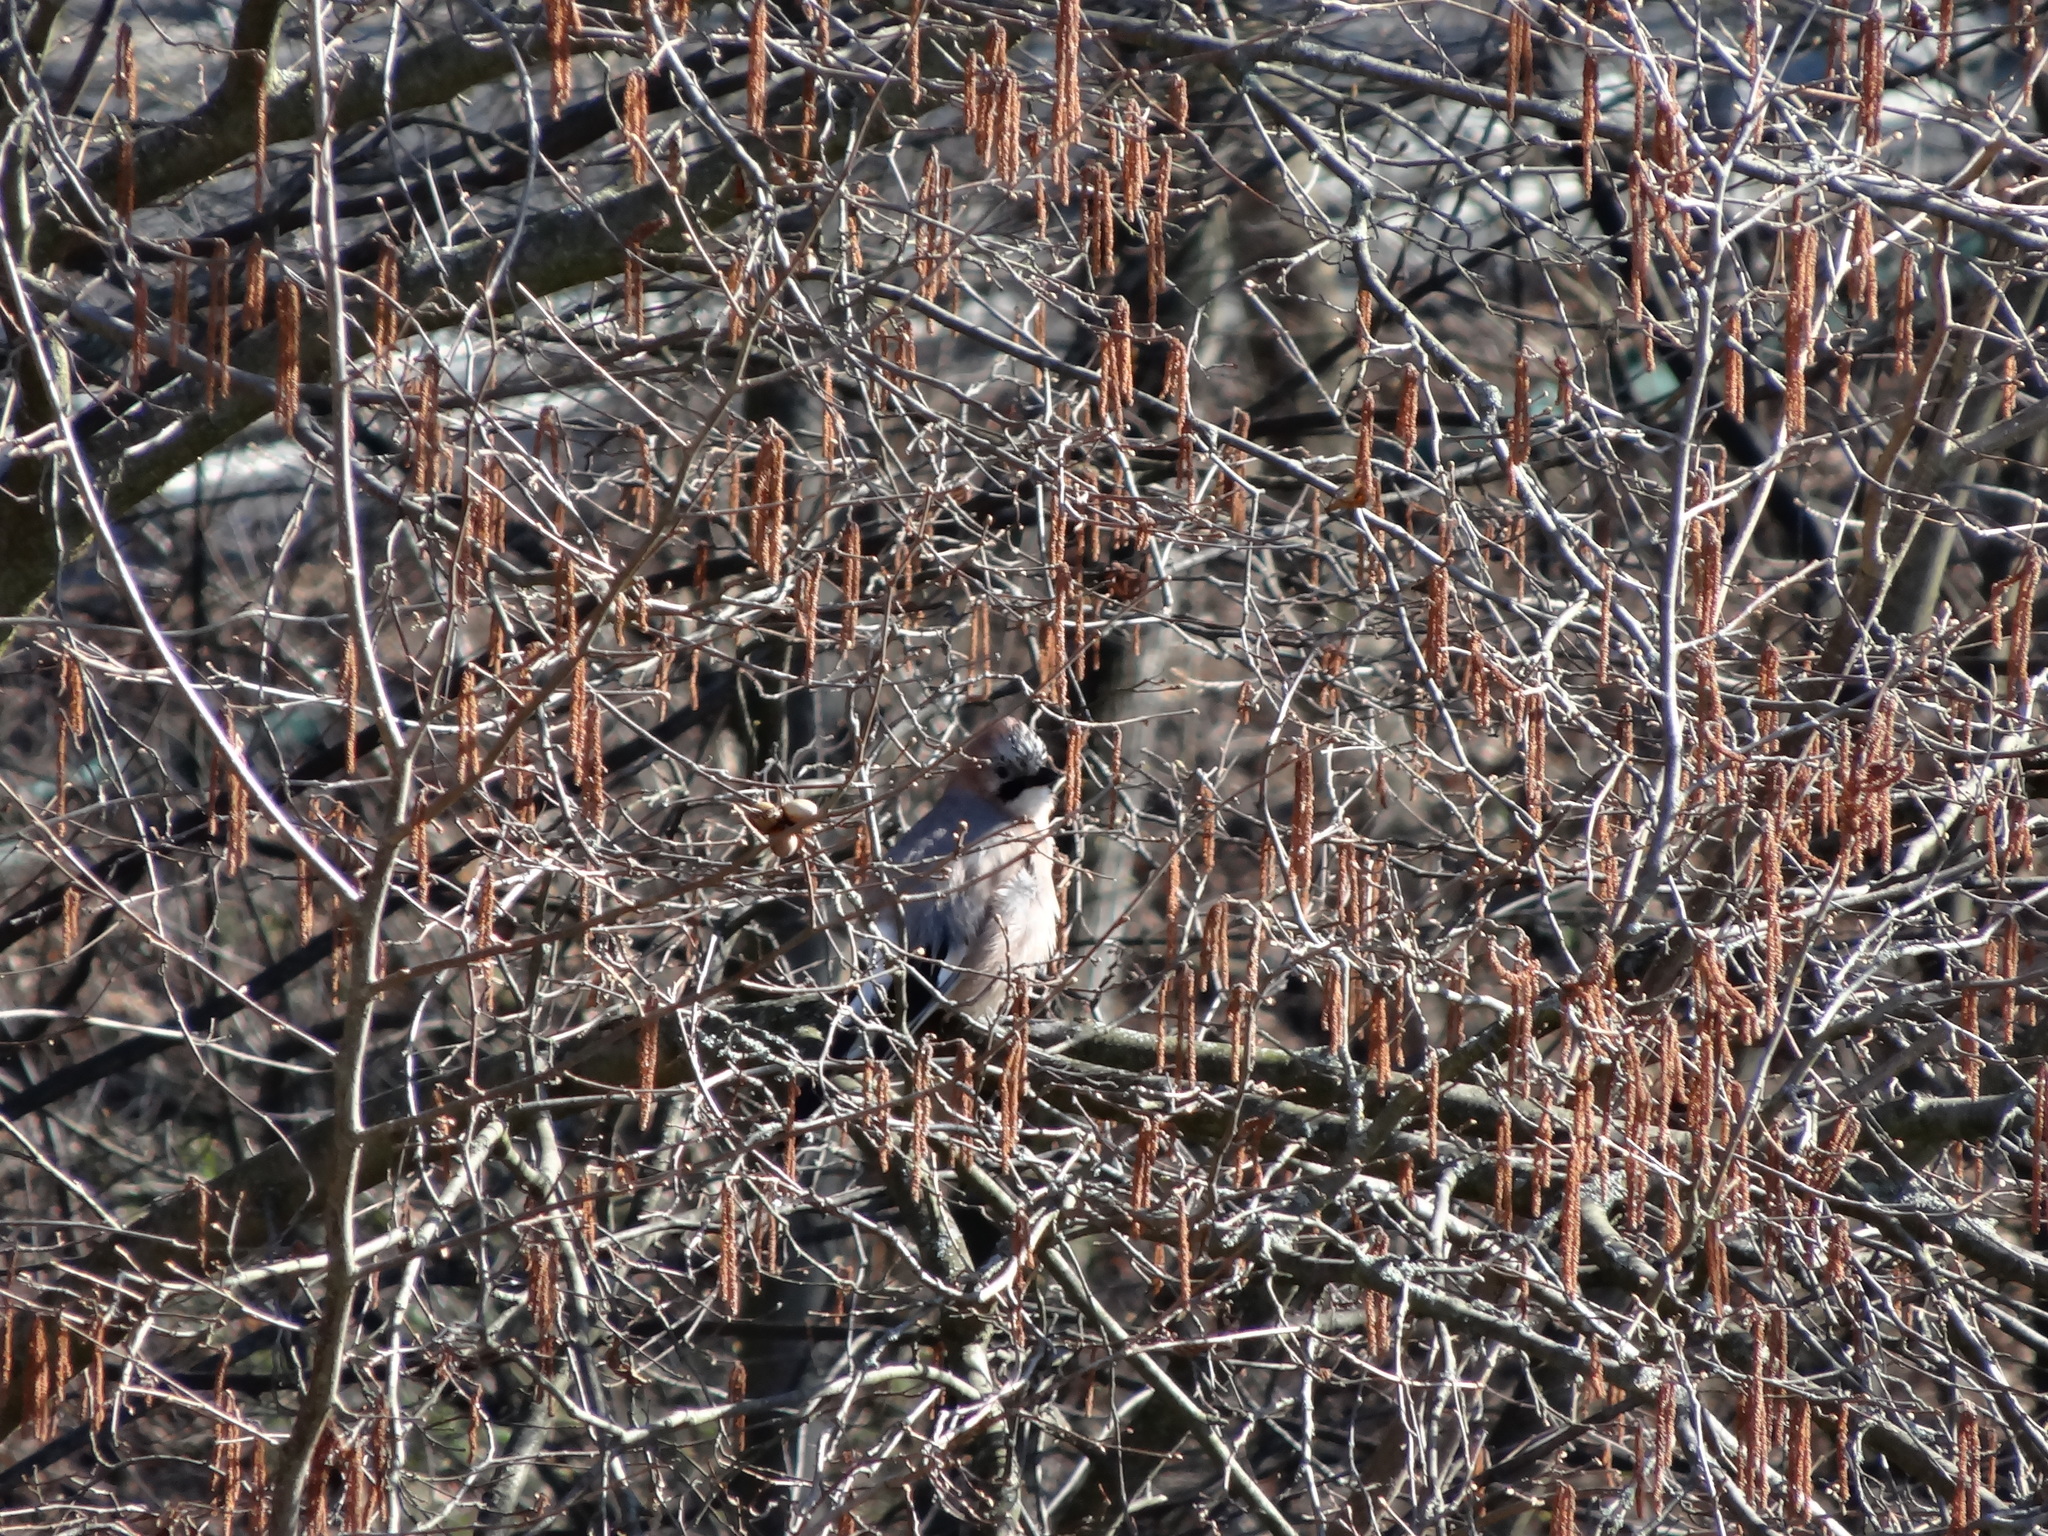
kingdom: Animalia
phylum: Chordata
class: Aves
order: Passeriformes
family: Corvidae
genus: Garrulus
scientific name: Garrulus glandarius
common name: Eurasian jay
